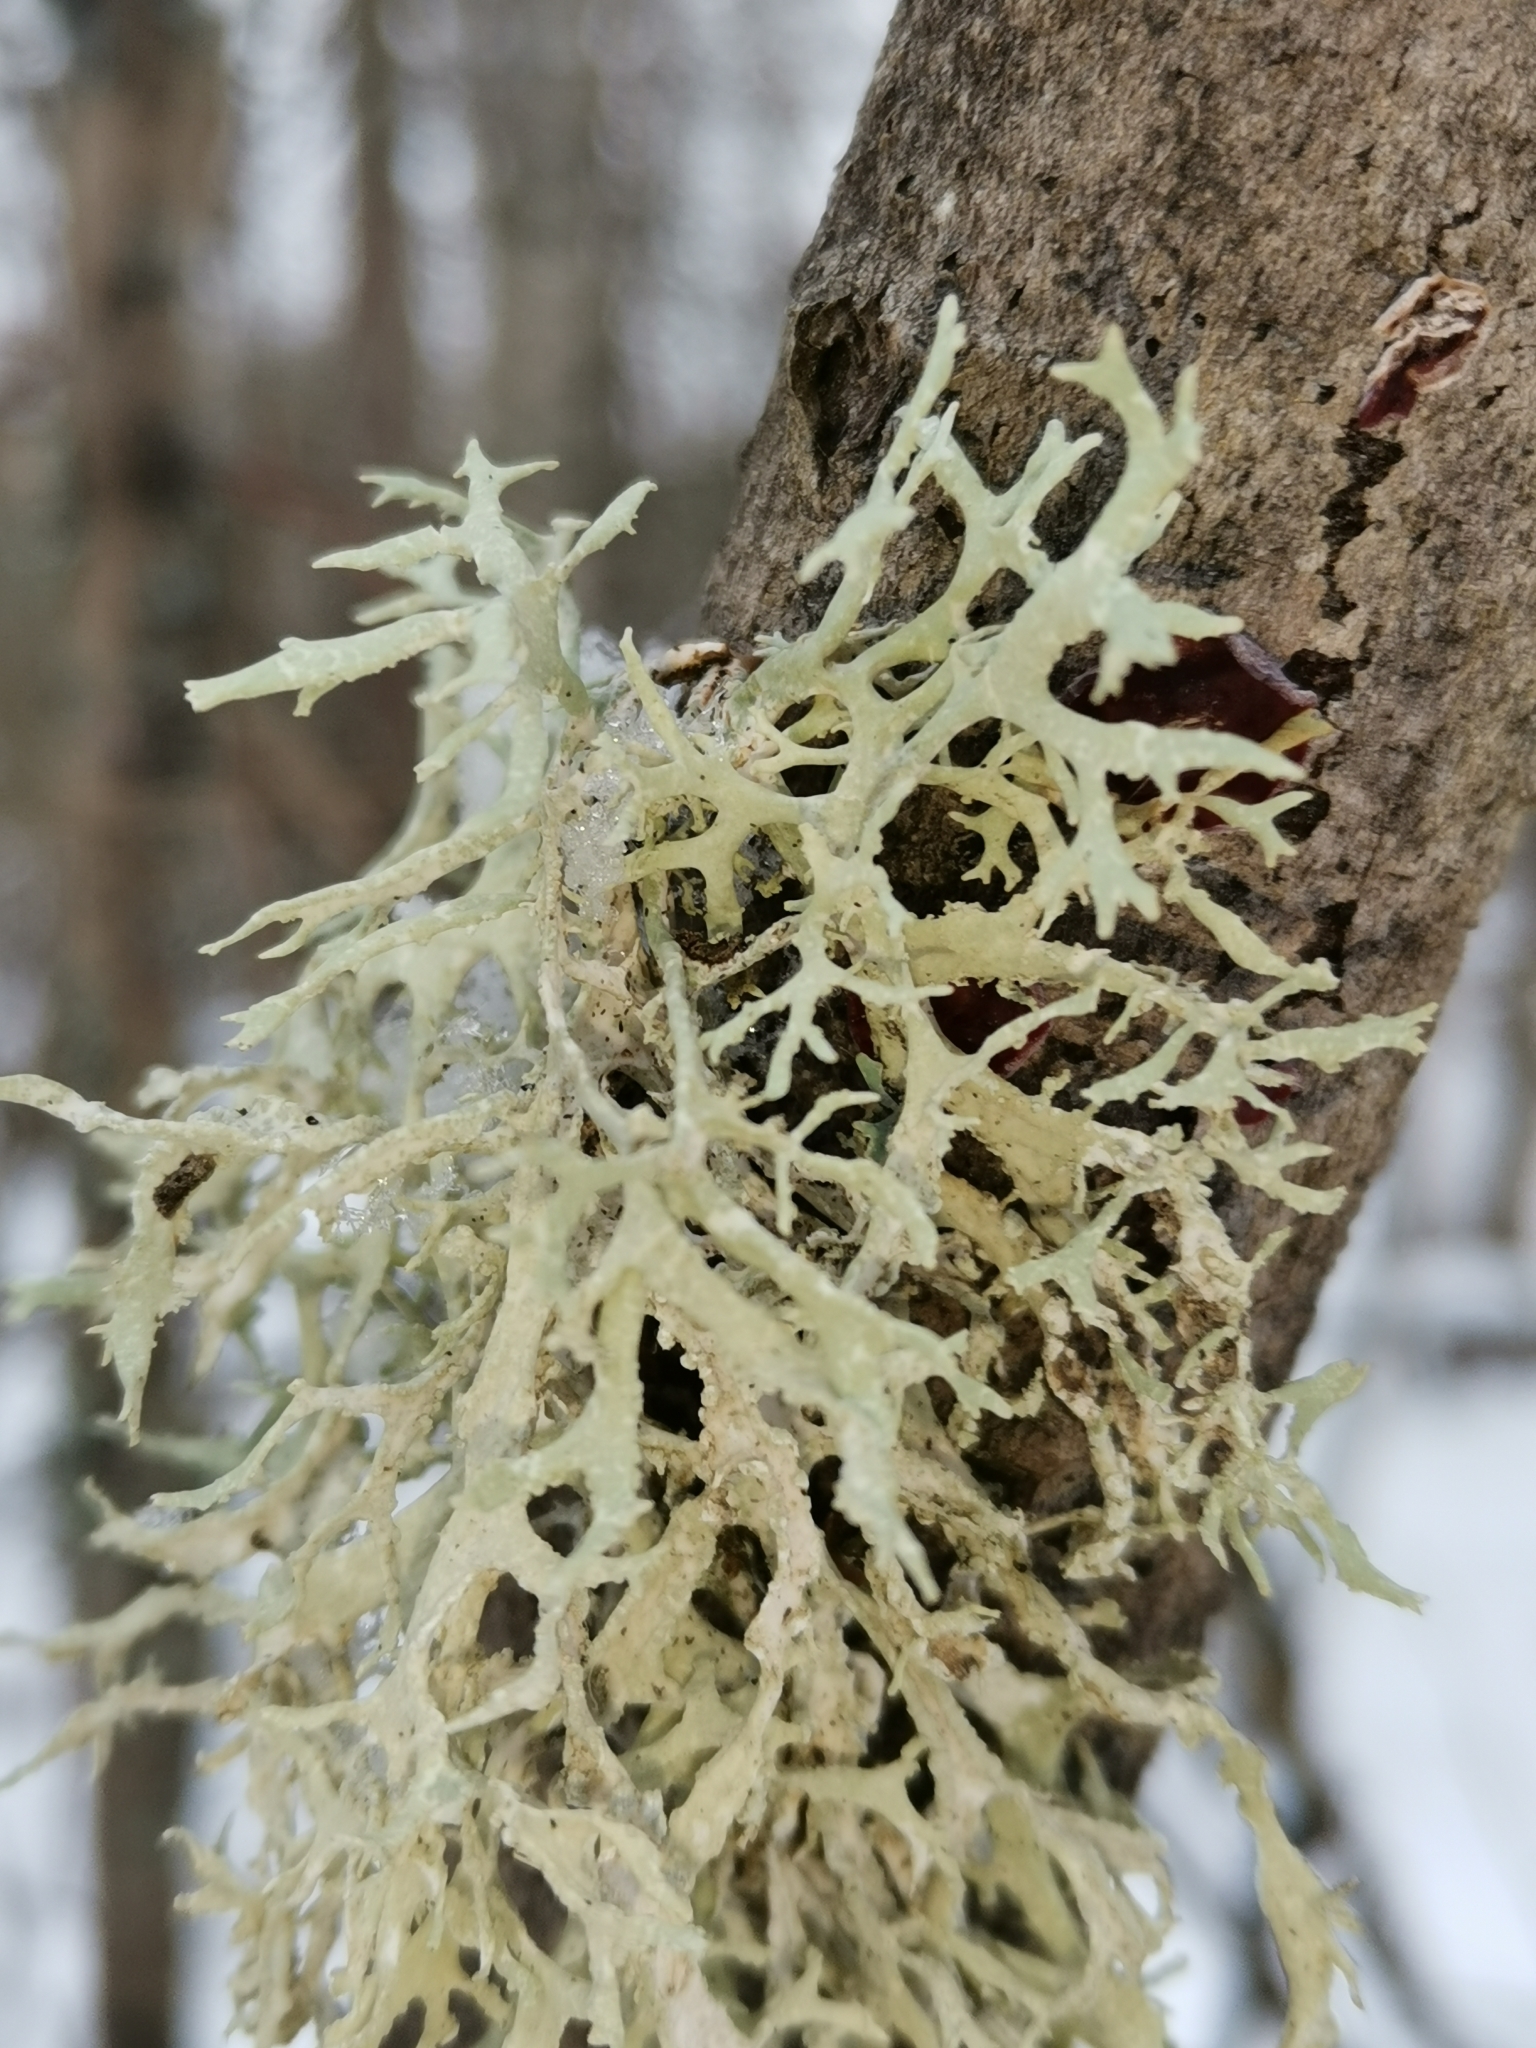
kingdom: Fungi
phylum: Ascomycota
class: Lecanoromycetes
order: Lecanorales
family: Parmeliaceae
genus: Evernia
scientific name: Evernia prunastri
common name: Oak moss
